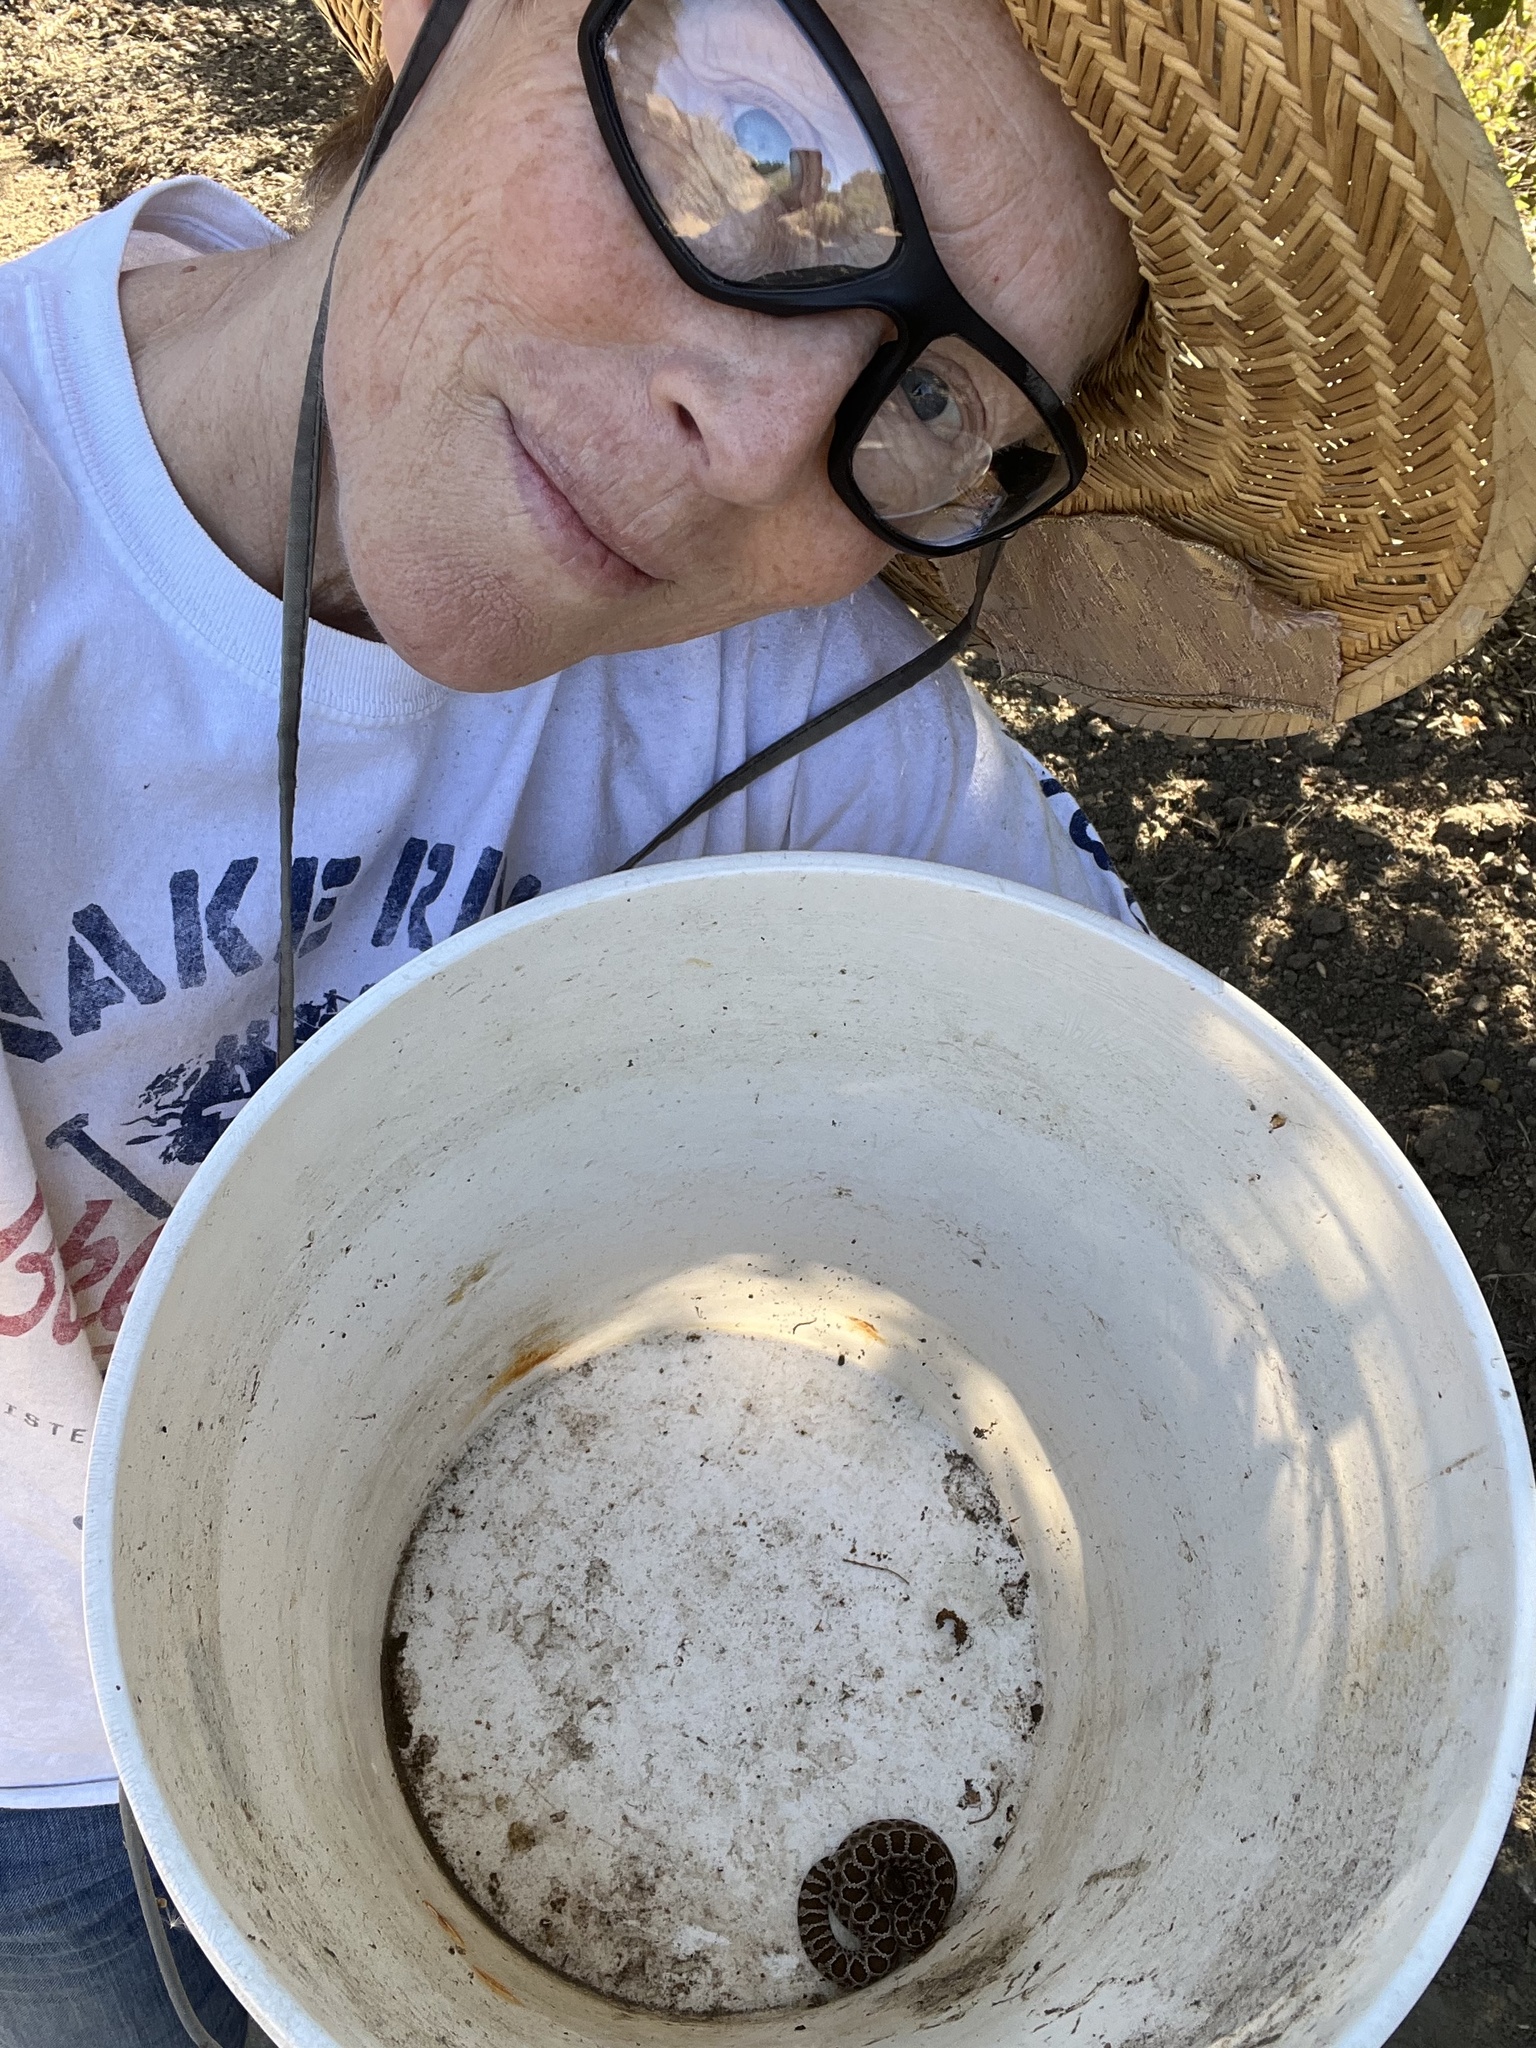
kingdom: Animalia
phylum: Chordata
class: Squamata
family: Viperidae
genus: Crotalus
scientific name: Crotalus oreganus
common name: Abyssus
